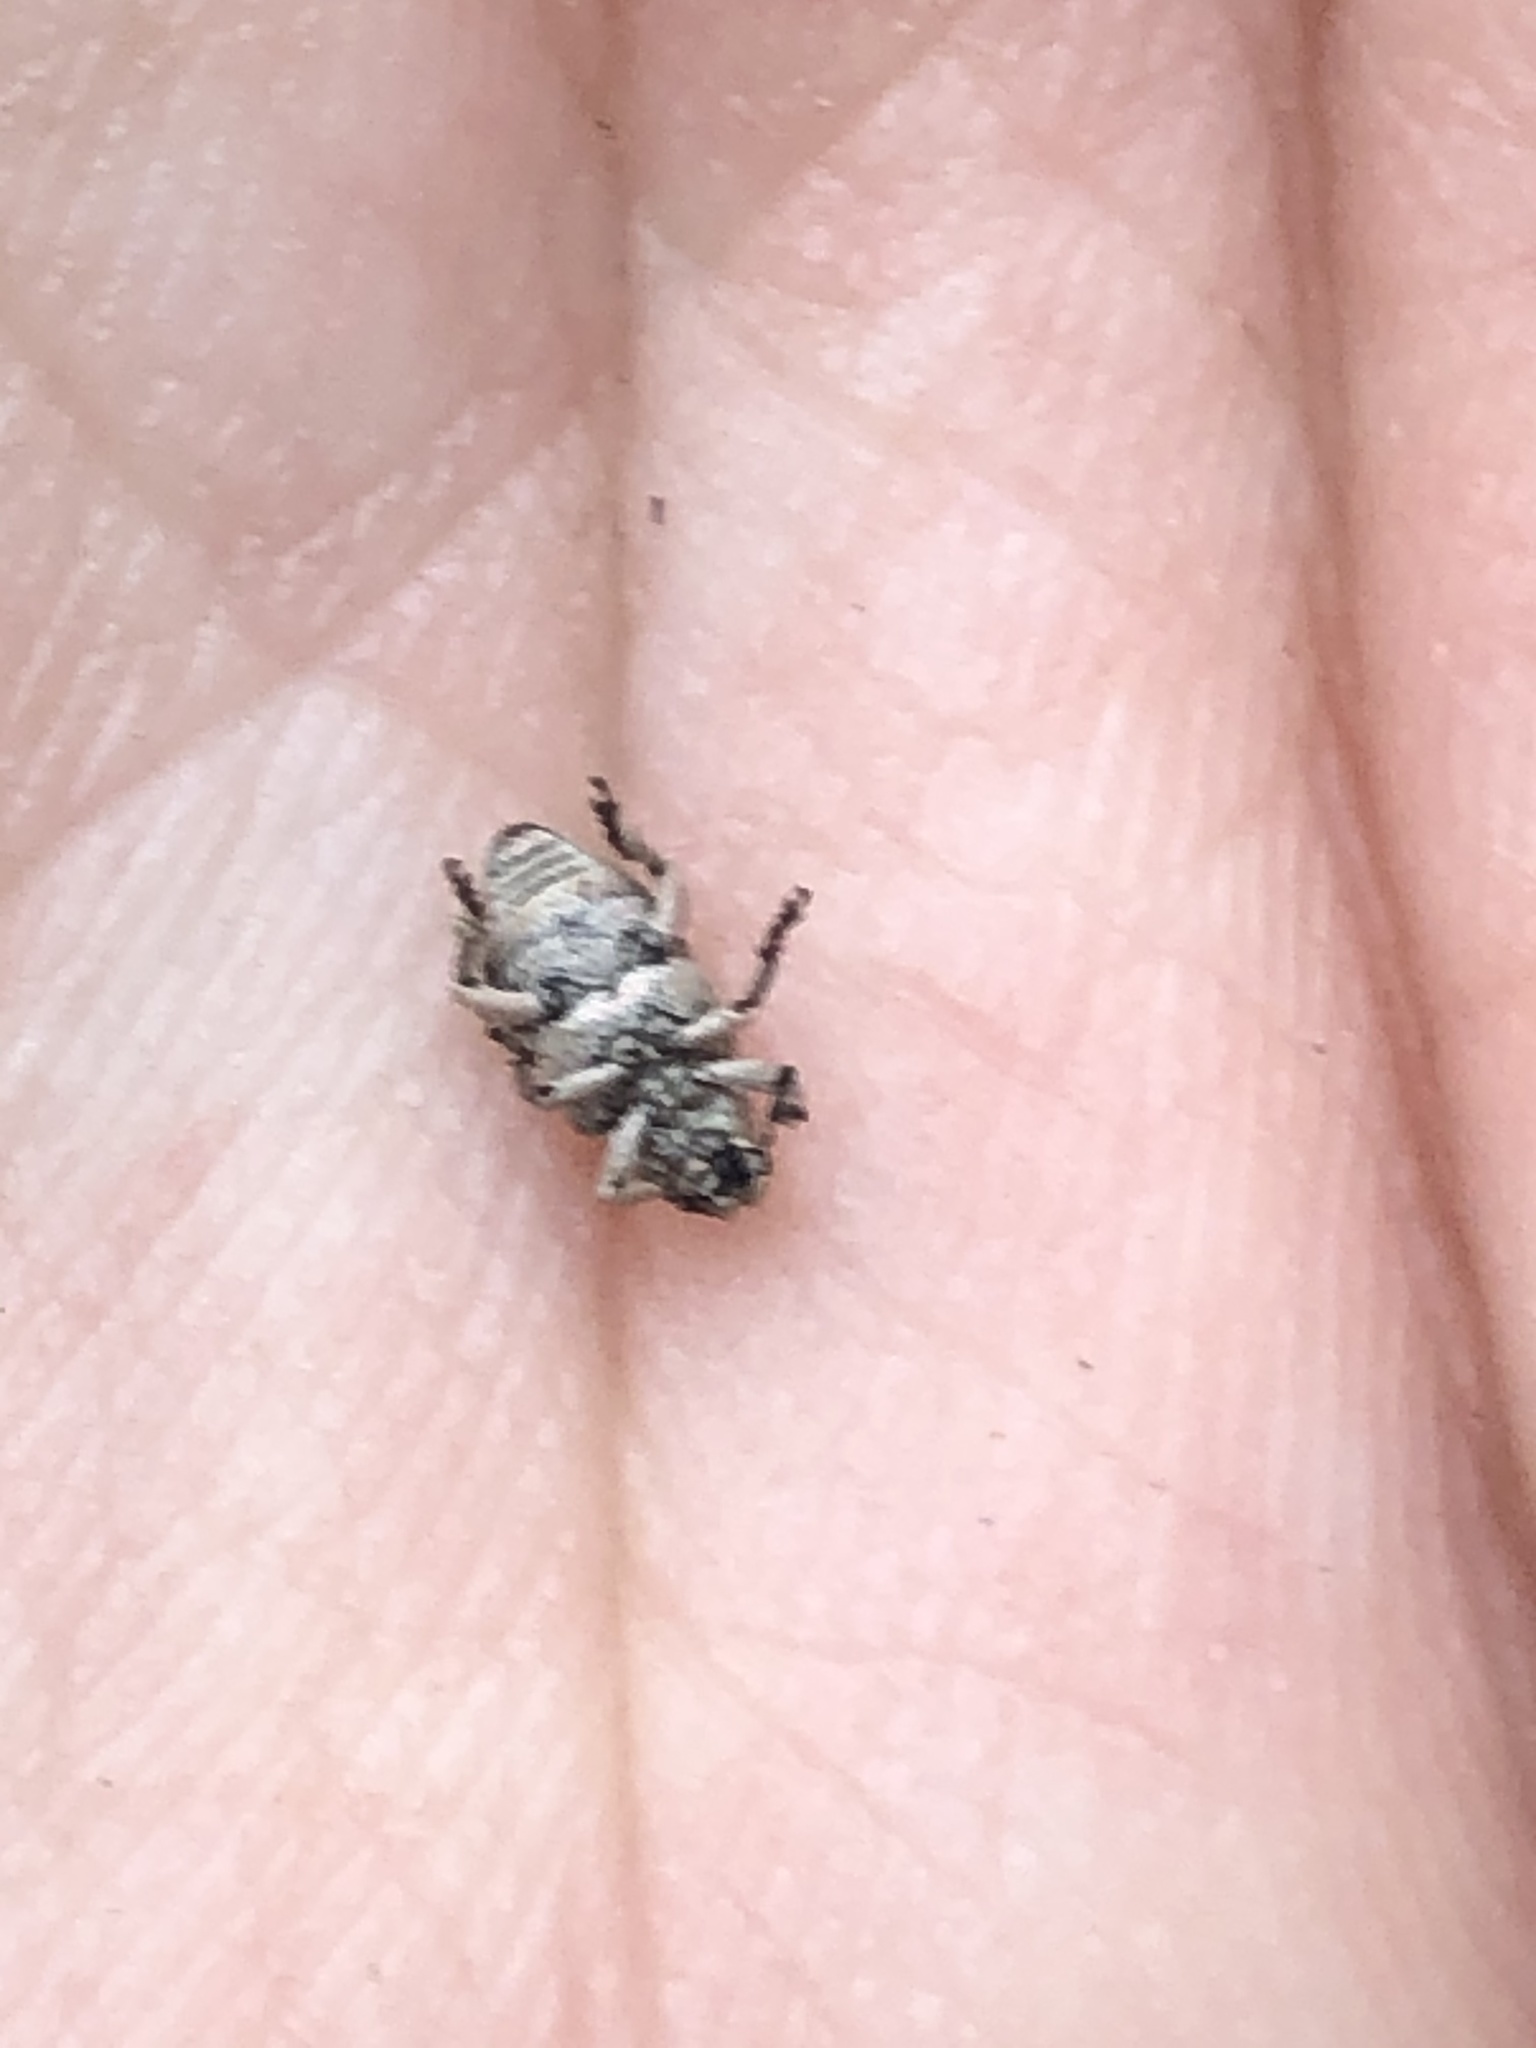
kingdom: Animalia
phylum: Arthropoda
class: Insecta
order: Coleoptera
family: Curculionidae
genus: Colecerus
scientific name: Colecerus marmoratus
